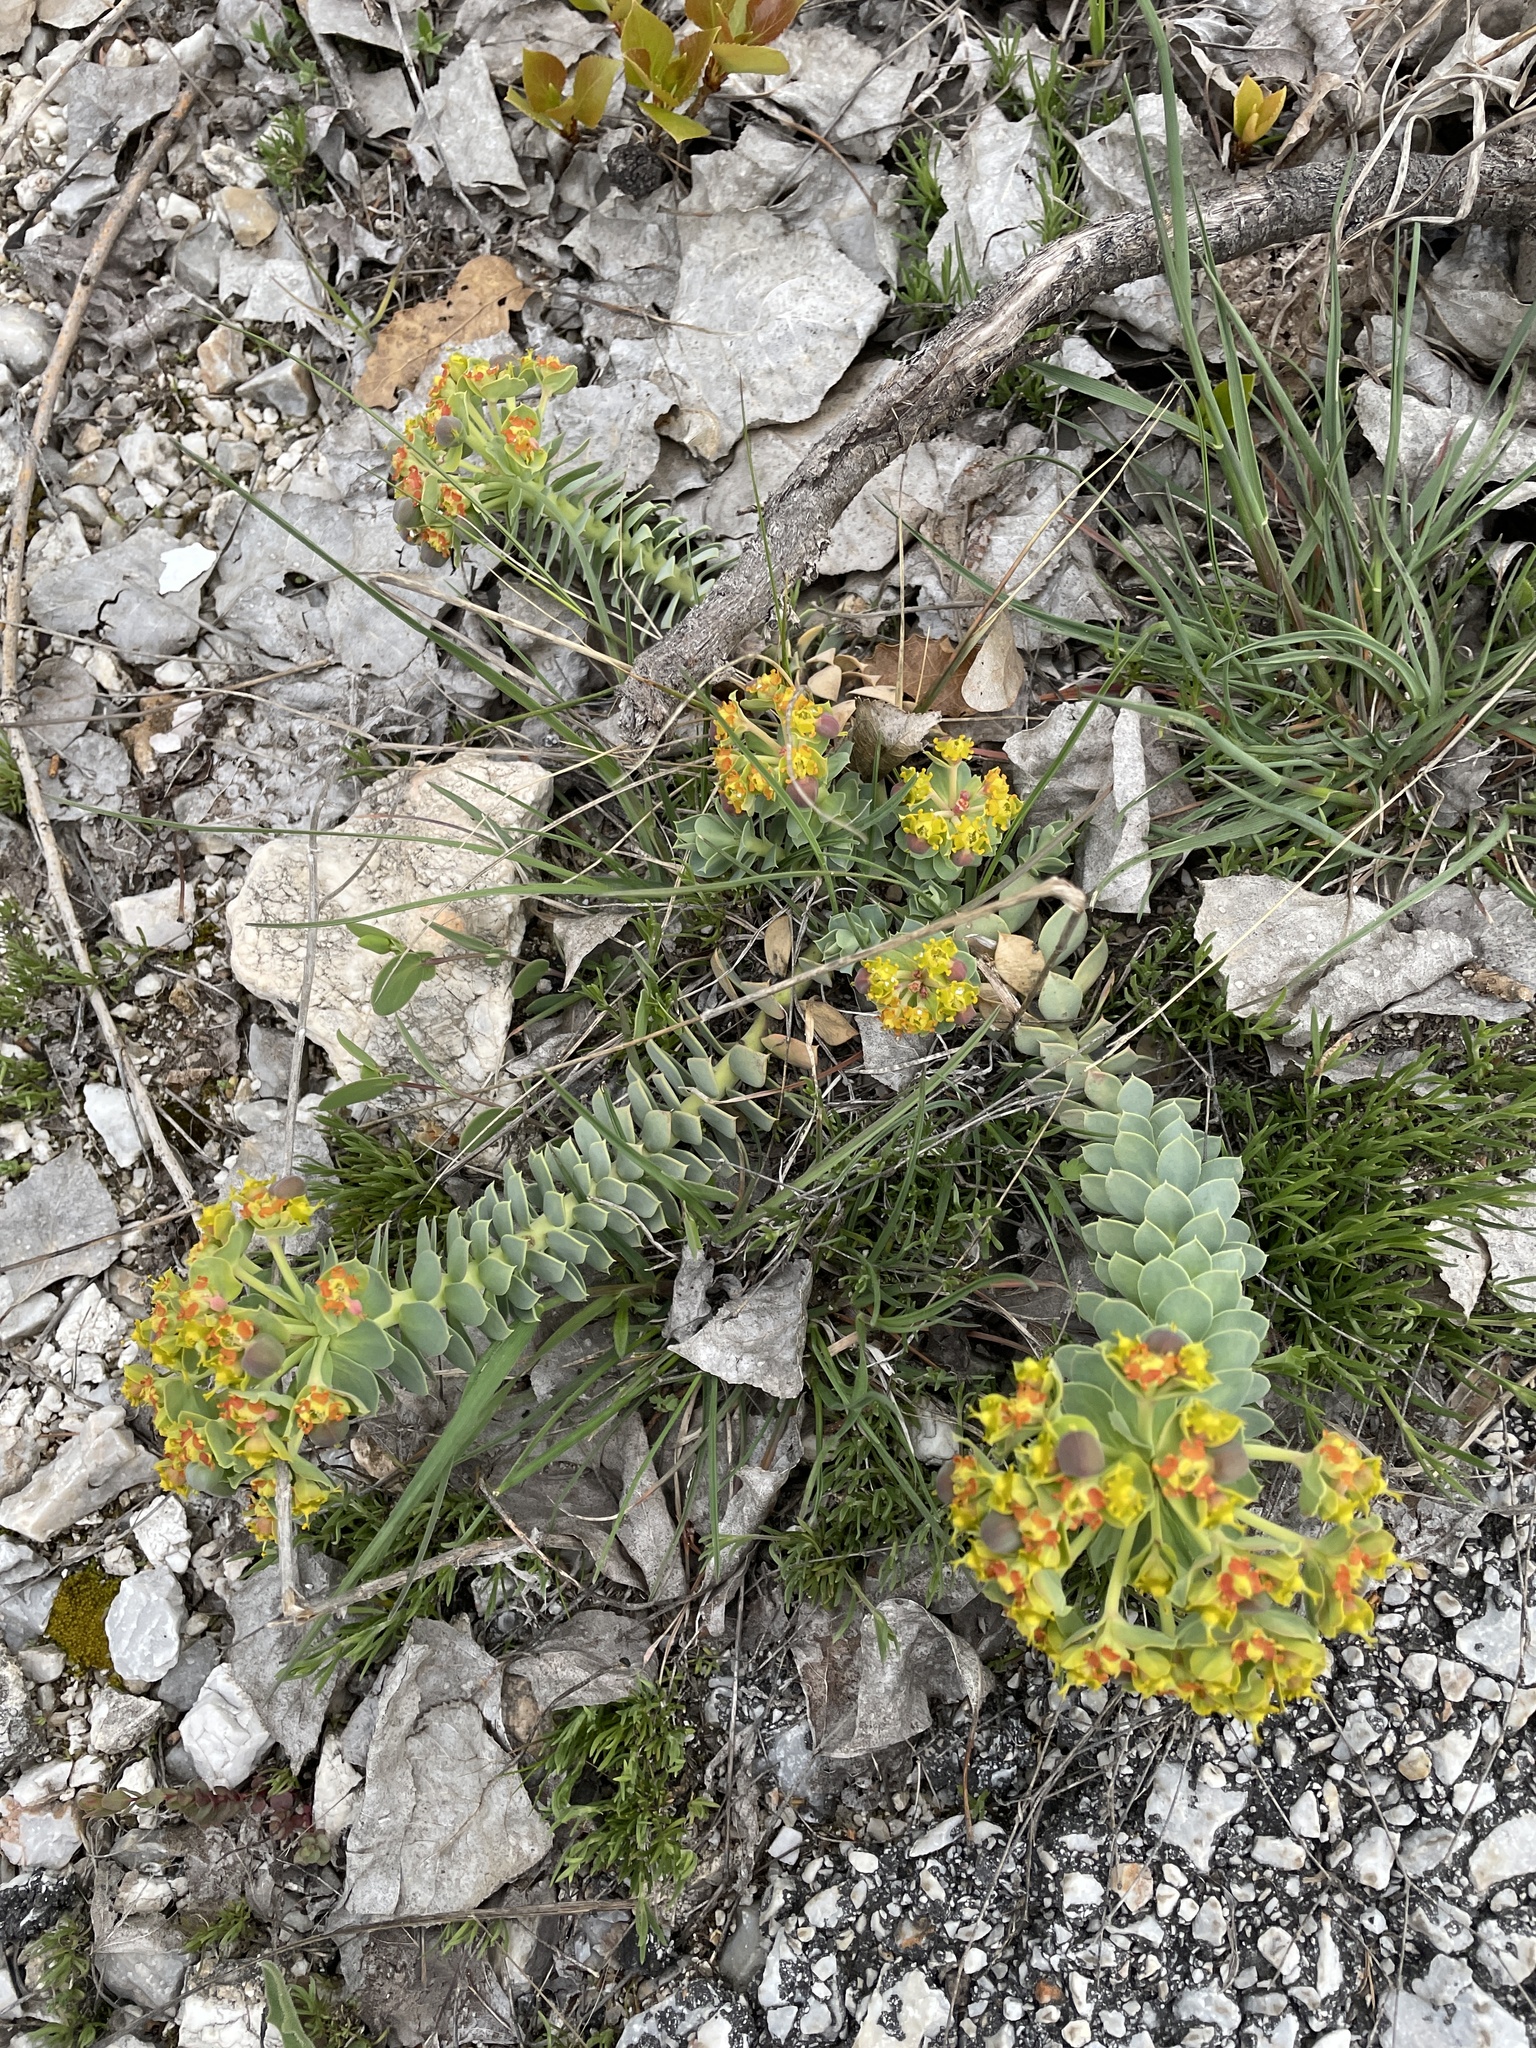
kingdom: Plantae
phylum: Tracheophyta
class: Magnoliopsida
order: Malpighiales
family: Euphorbiaceae
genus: Euphorbia
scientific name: Euphorbia myrsinites
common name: Myrtle spurge
